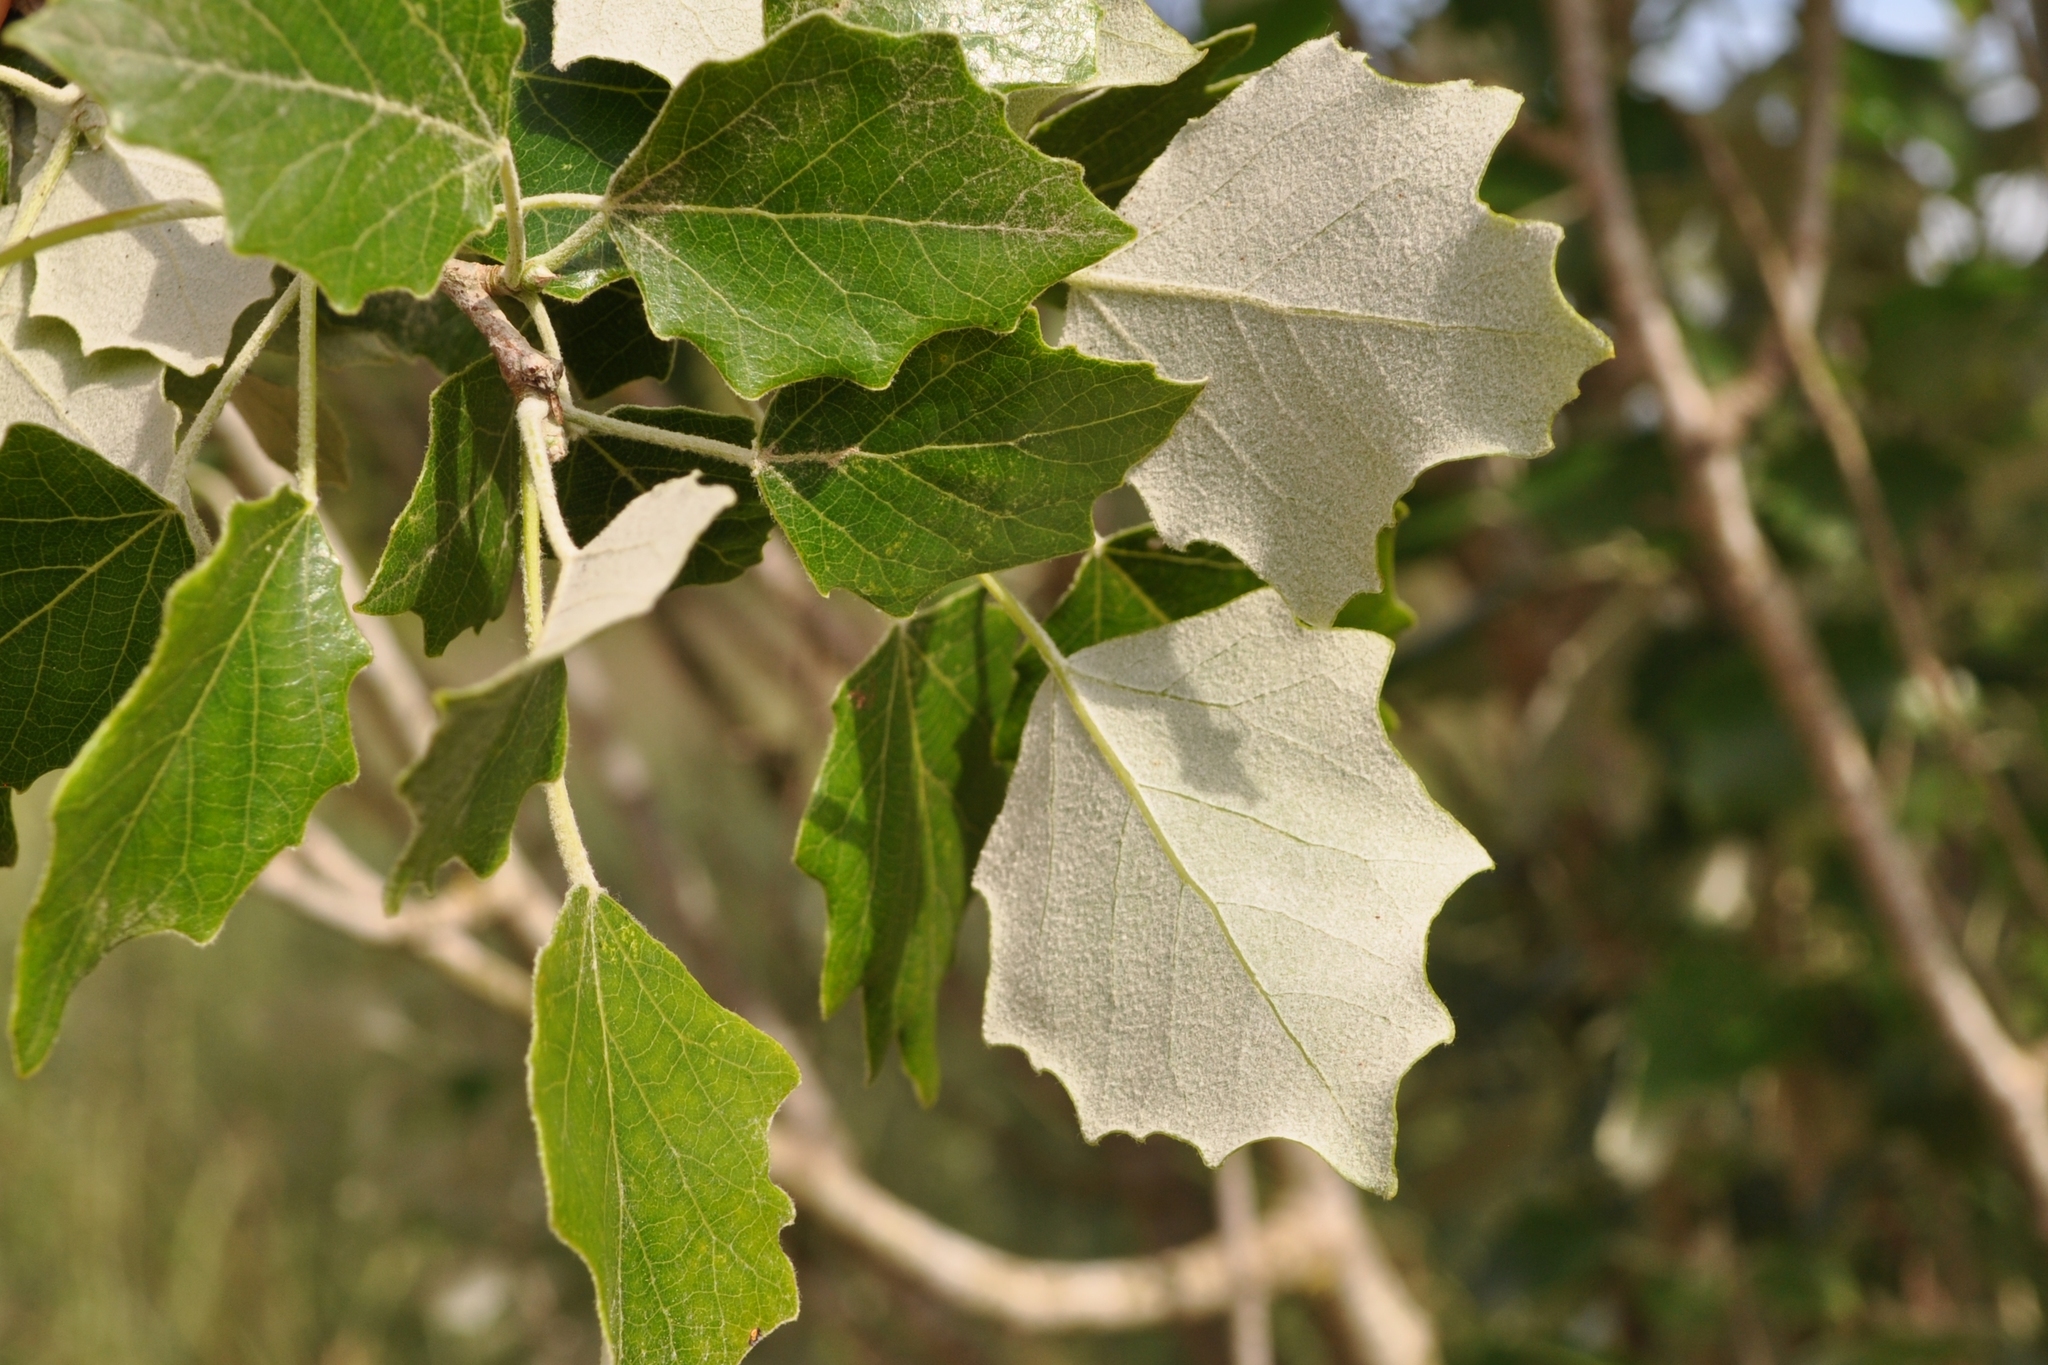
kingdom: Plantae
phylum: Tracheophyta
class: Magnoliopsida
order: Malpighiales
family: Salicaceae
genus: Populus
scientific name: Populus alba
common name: White poplar
